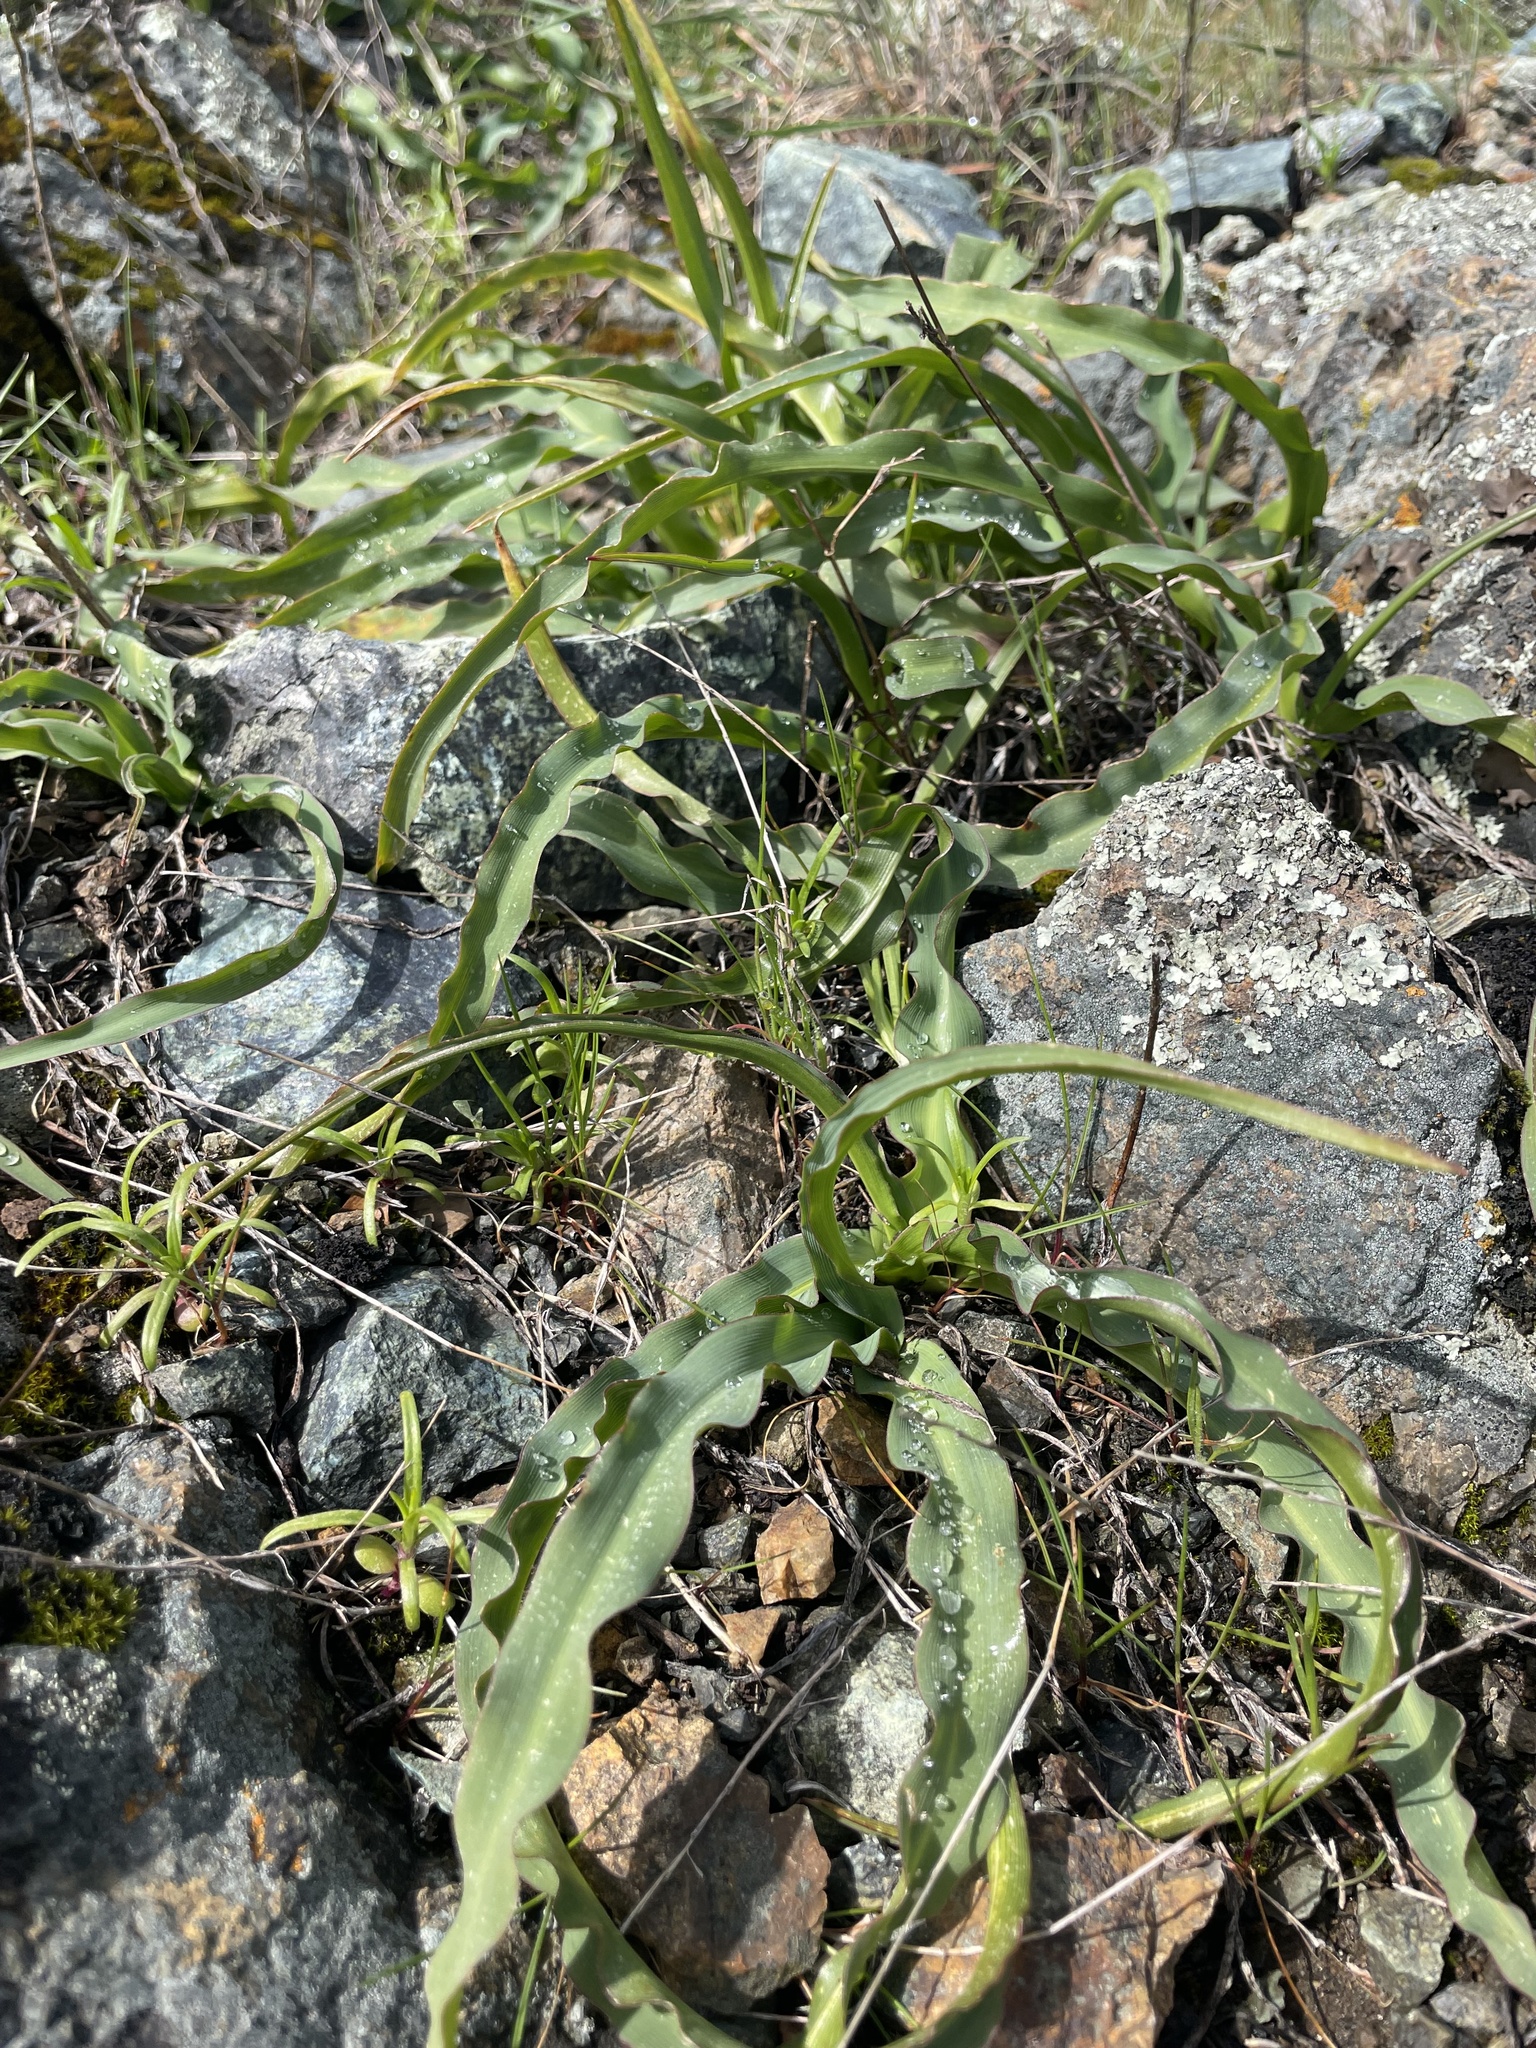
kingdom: Plantae
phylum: Tracheophyta
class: Liliopsida
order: Asparagales
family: Asparagaceae
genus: Chlorogalum
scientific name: Chlorogalum pomeridianum
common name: Amole
